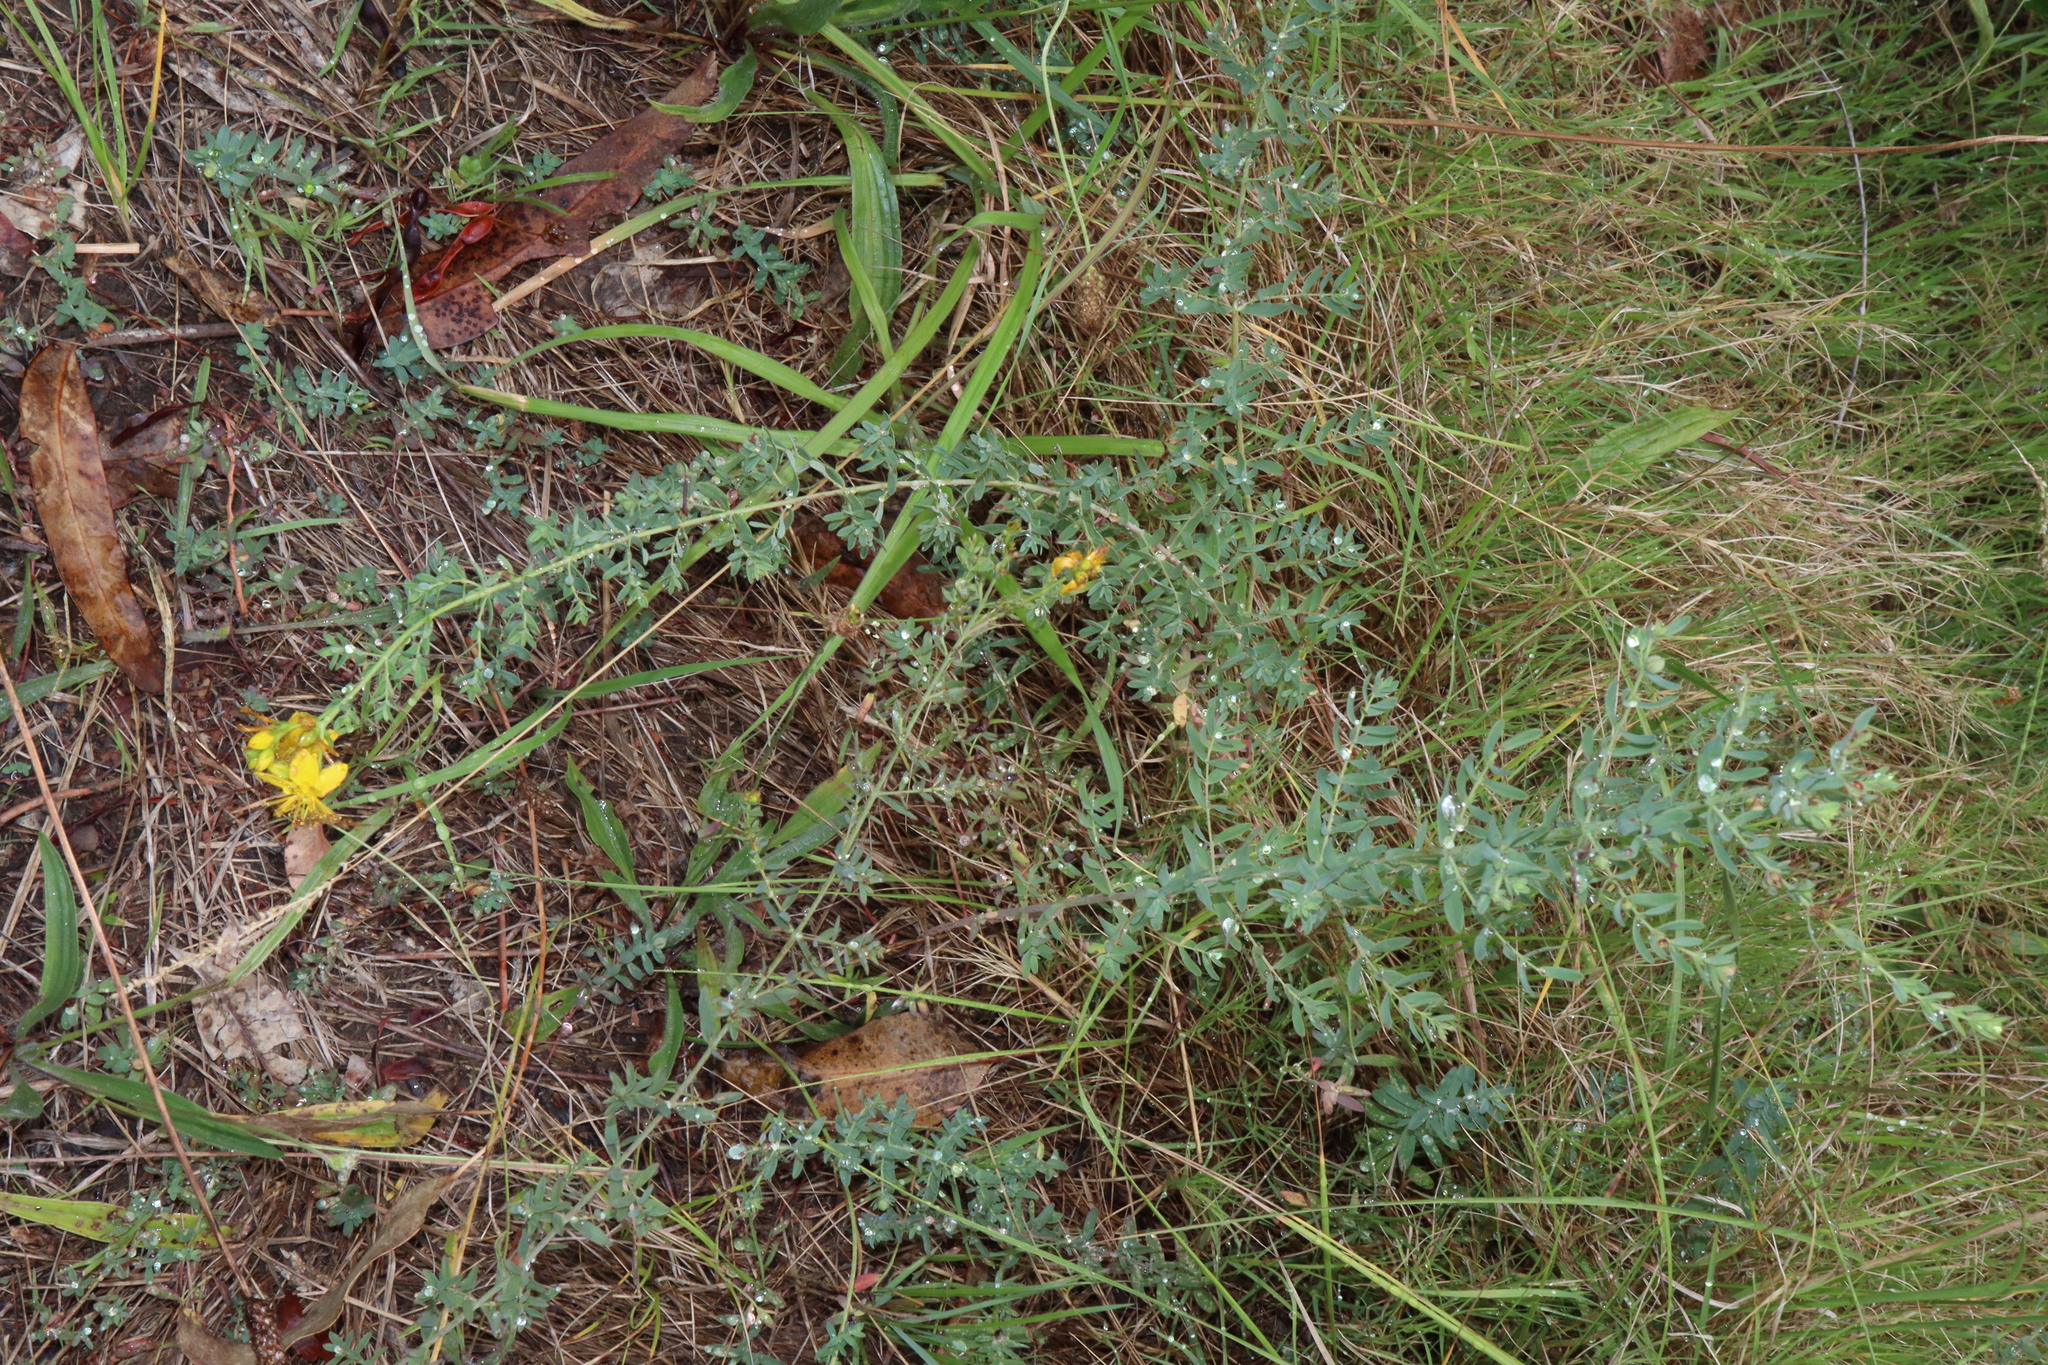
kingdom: Plantae
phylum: Tracheophyta
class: Magnoliopsida
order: Malpighiales
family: Hypericaceae
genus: Hypericum
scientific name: Hypericum perforatum
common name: Common st. johnswort
